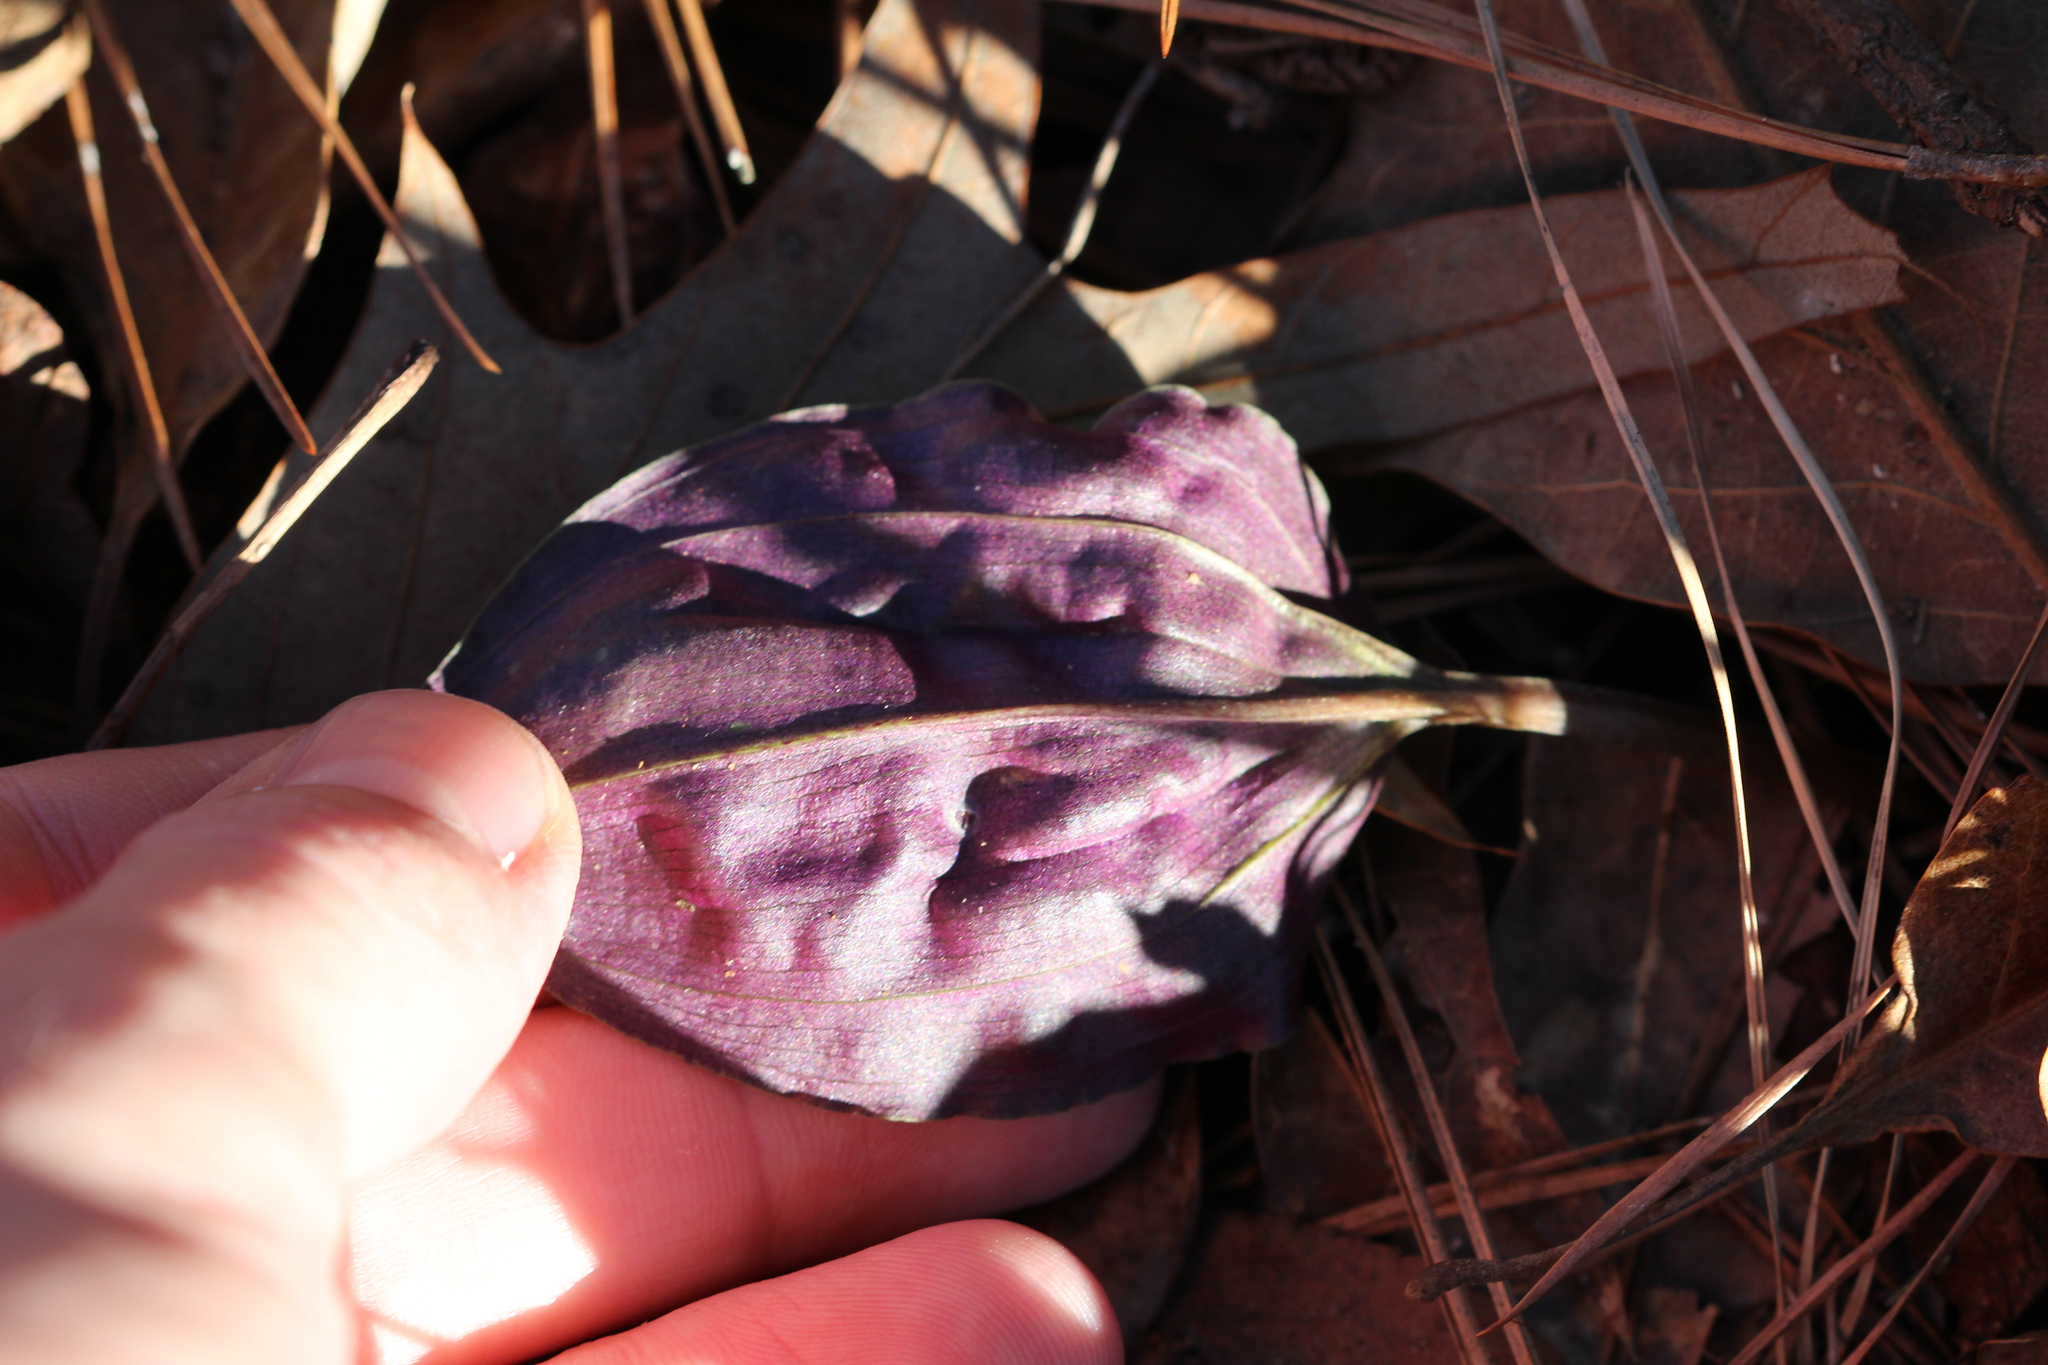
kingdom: Plantae
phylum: Tracheophyta
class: Liliopsida
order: Asparagales
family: Orchidaceae
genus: Tipularia
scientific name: Tipularia discolor
